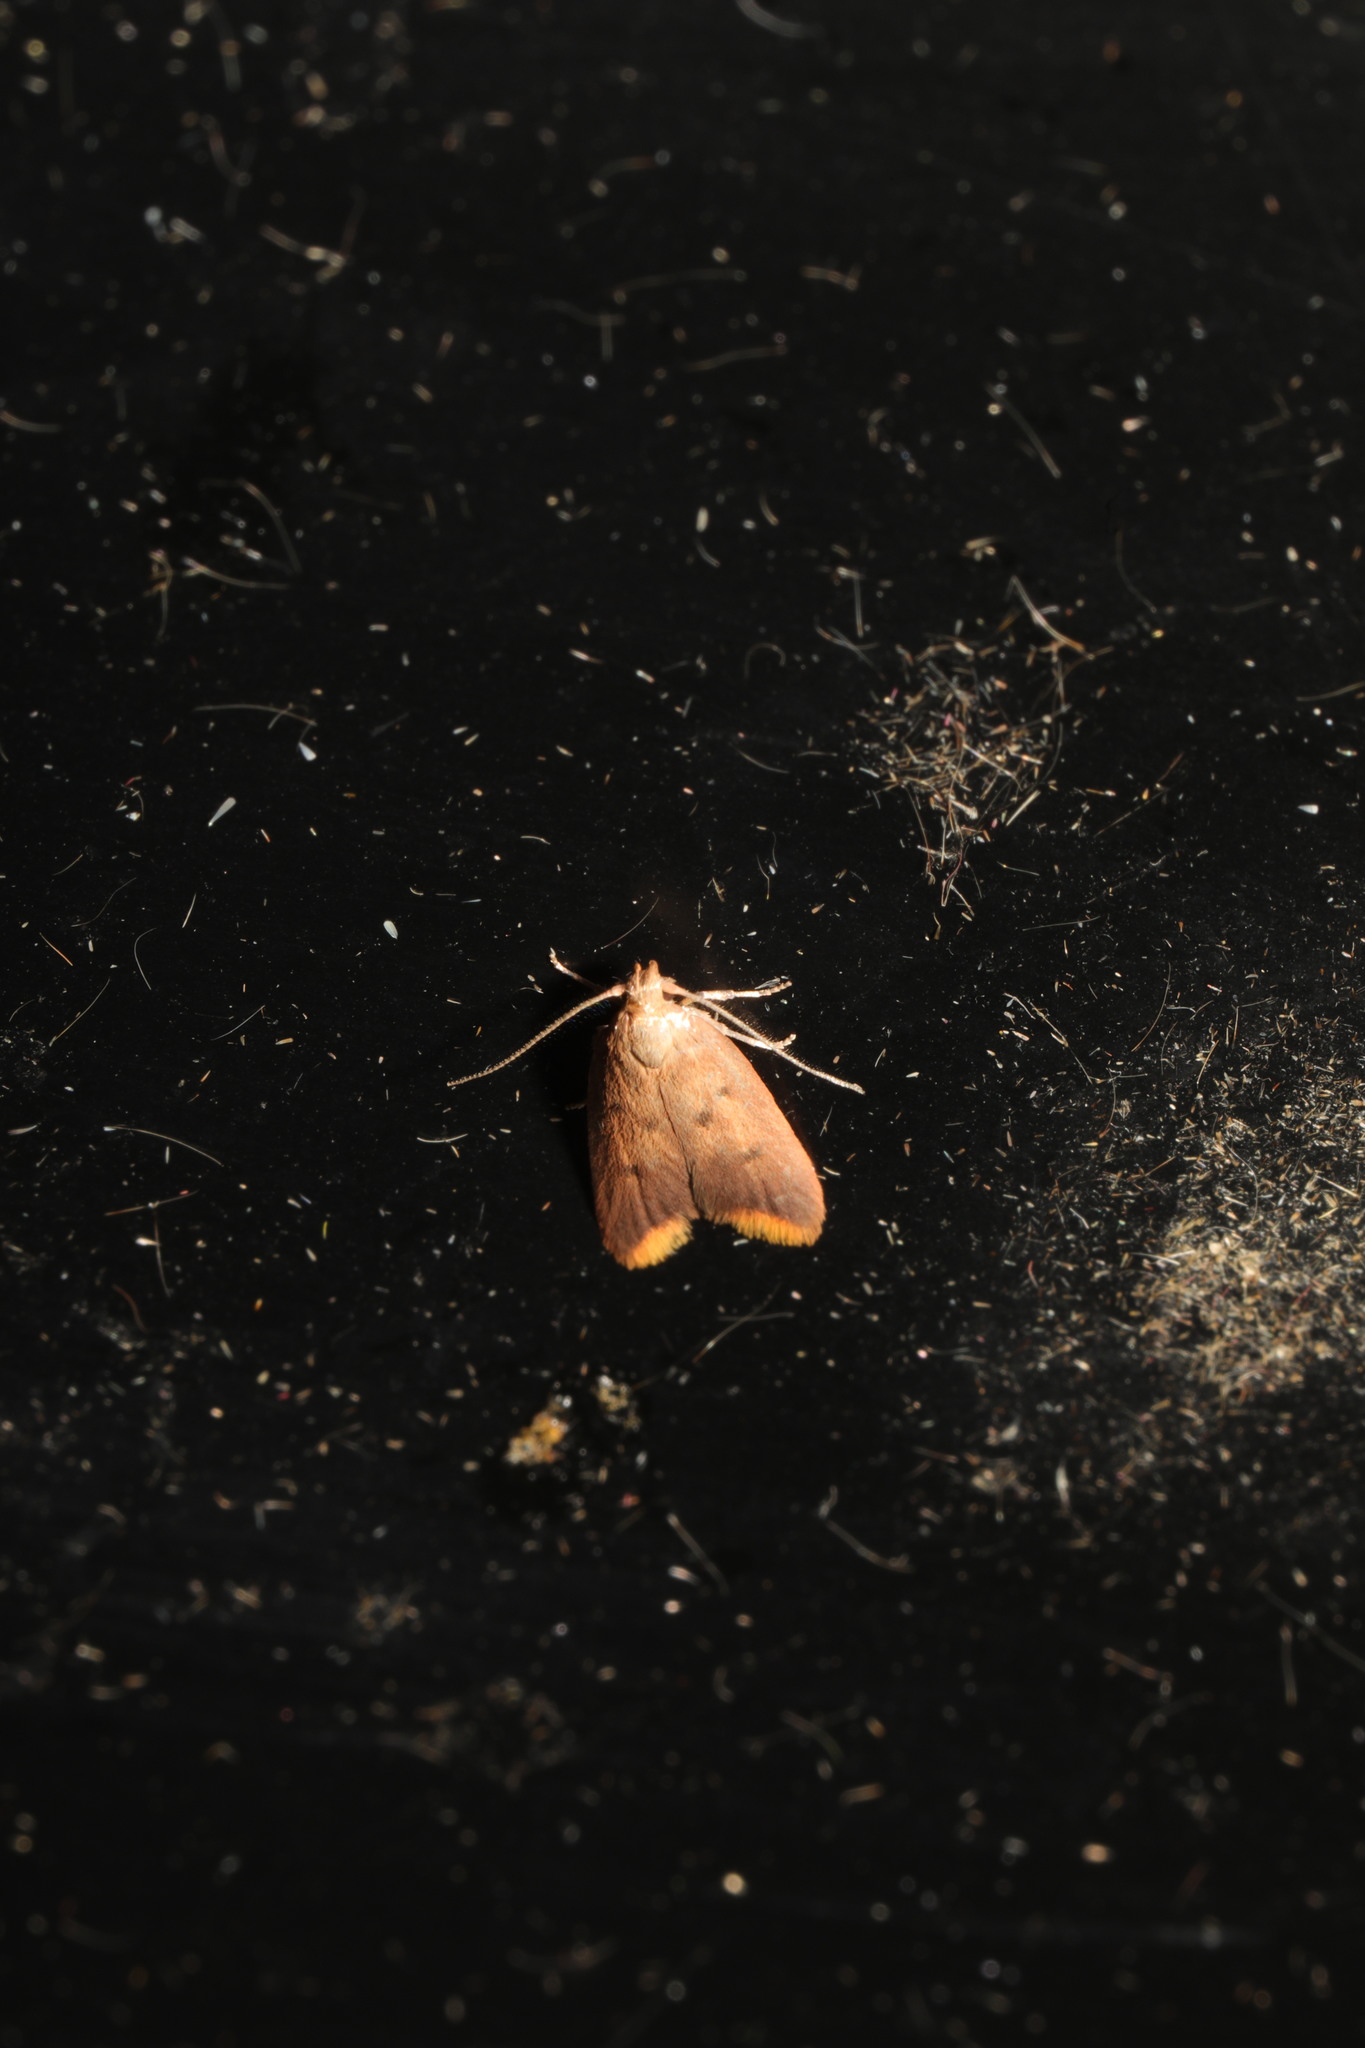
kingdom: Animalia
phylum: Arthropoda
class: Insecta
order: Lepidoptera
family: Oecophoridae
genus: Tachystola
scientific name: Tachystola acroxantha
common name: Ruddy streak
